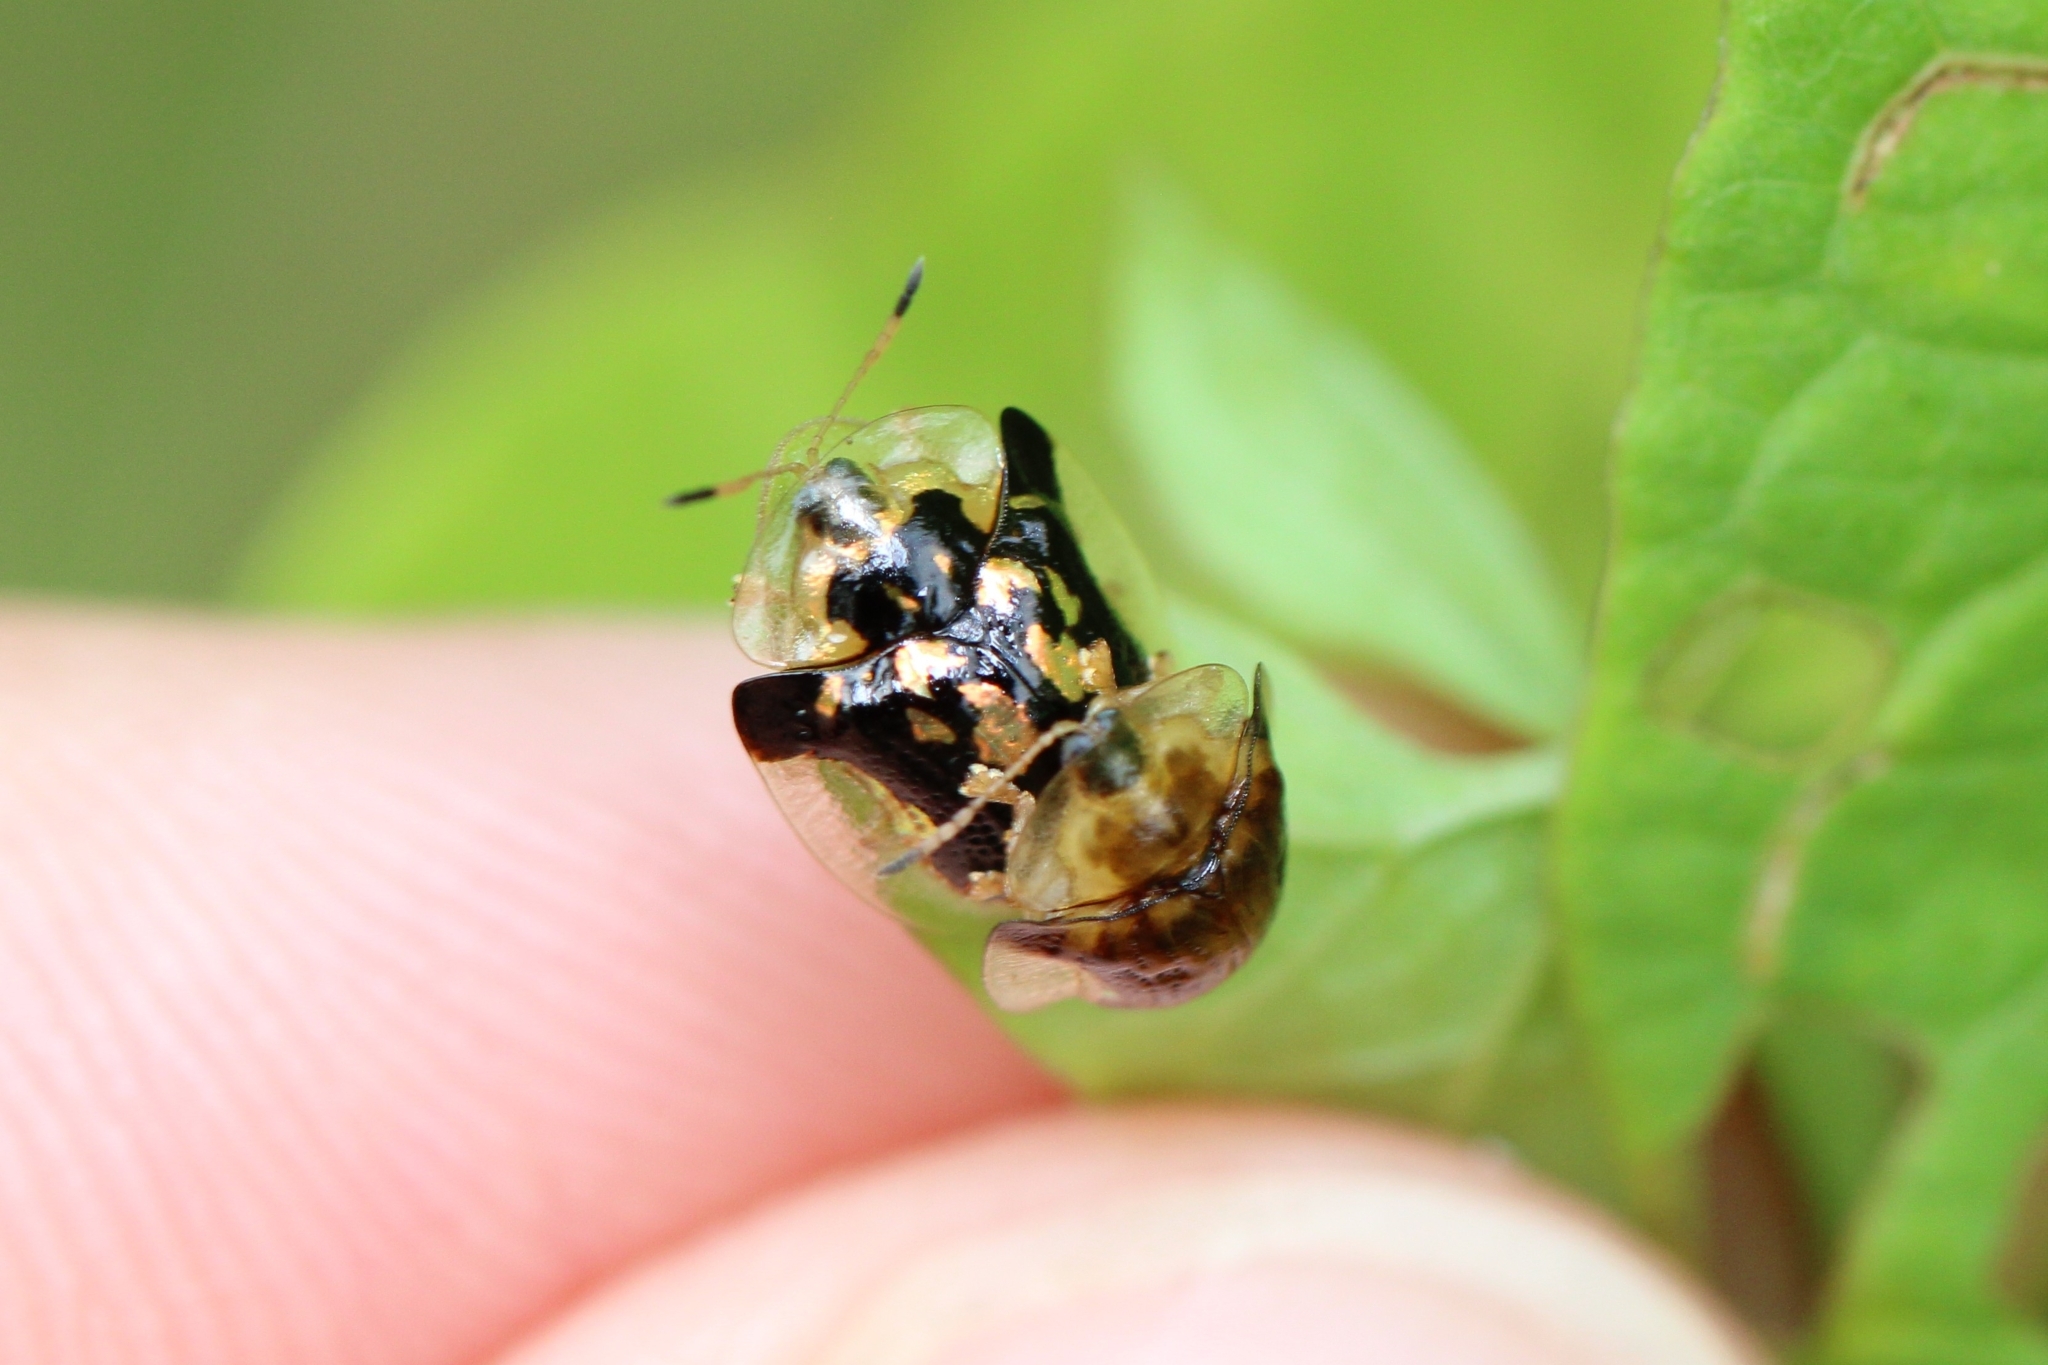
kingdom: Animalia
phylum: Arthropoda
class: Insecta
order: Coleoptera
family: Chrysomelidae
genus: Deloyala
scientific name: Deloyala guttata
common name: Mottled tortoise beetle
